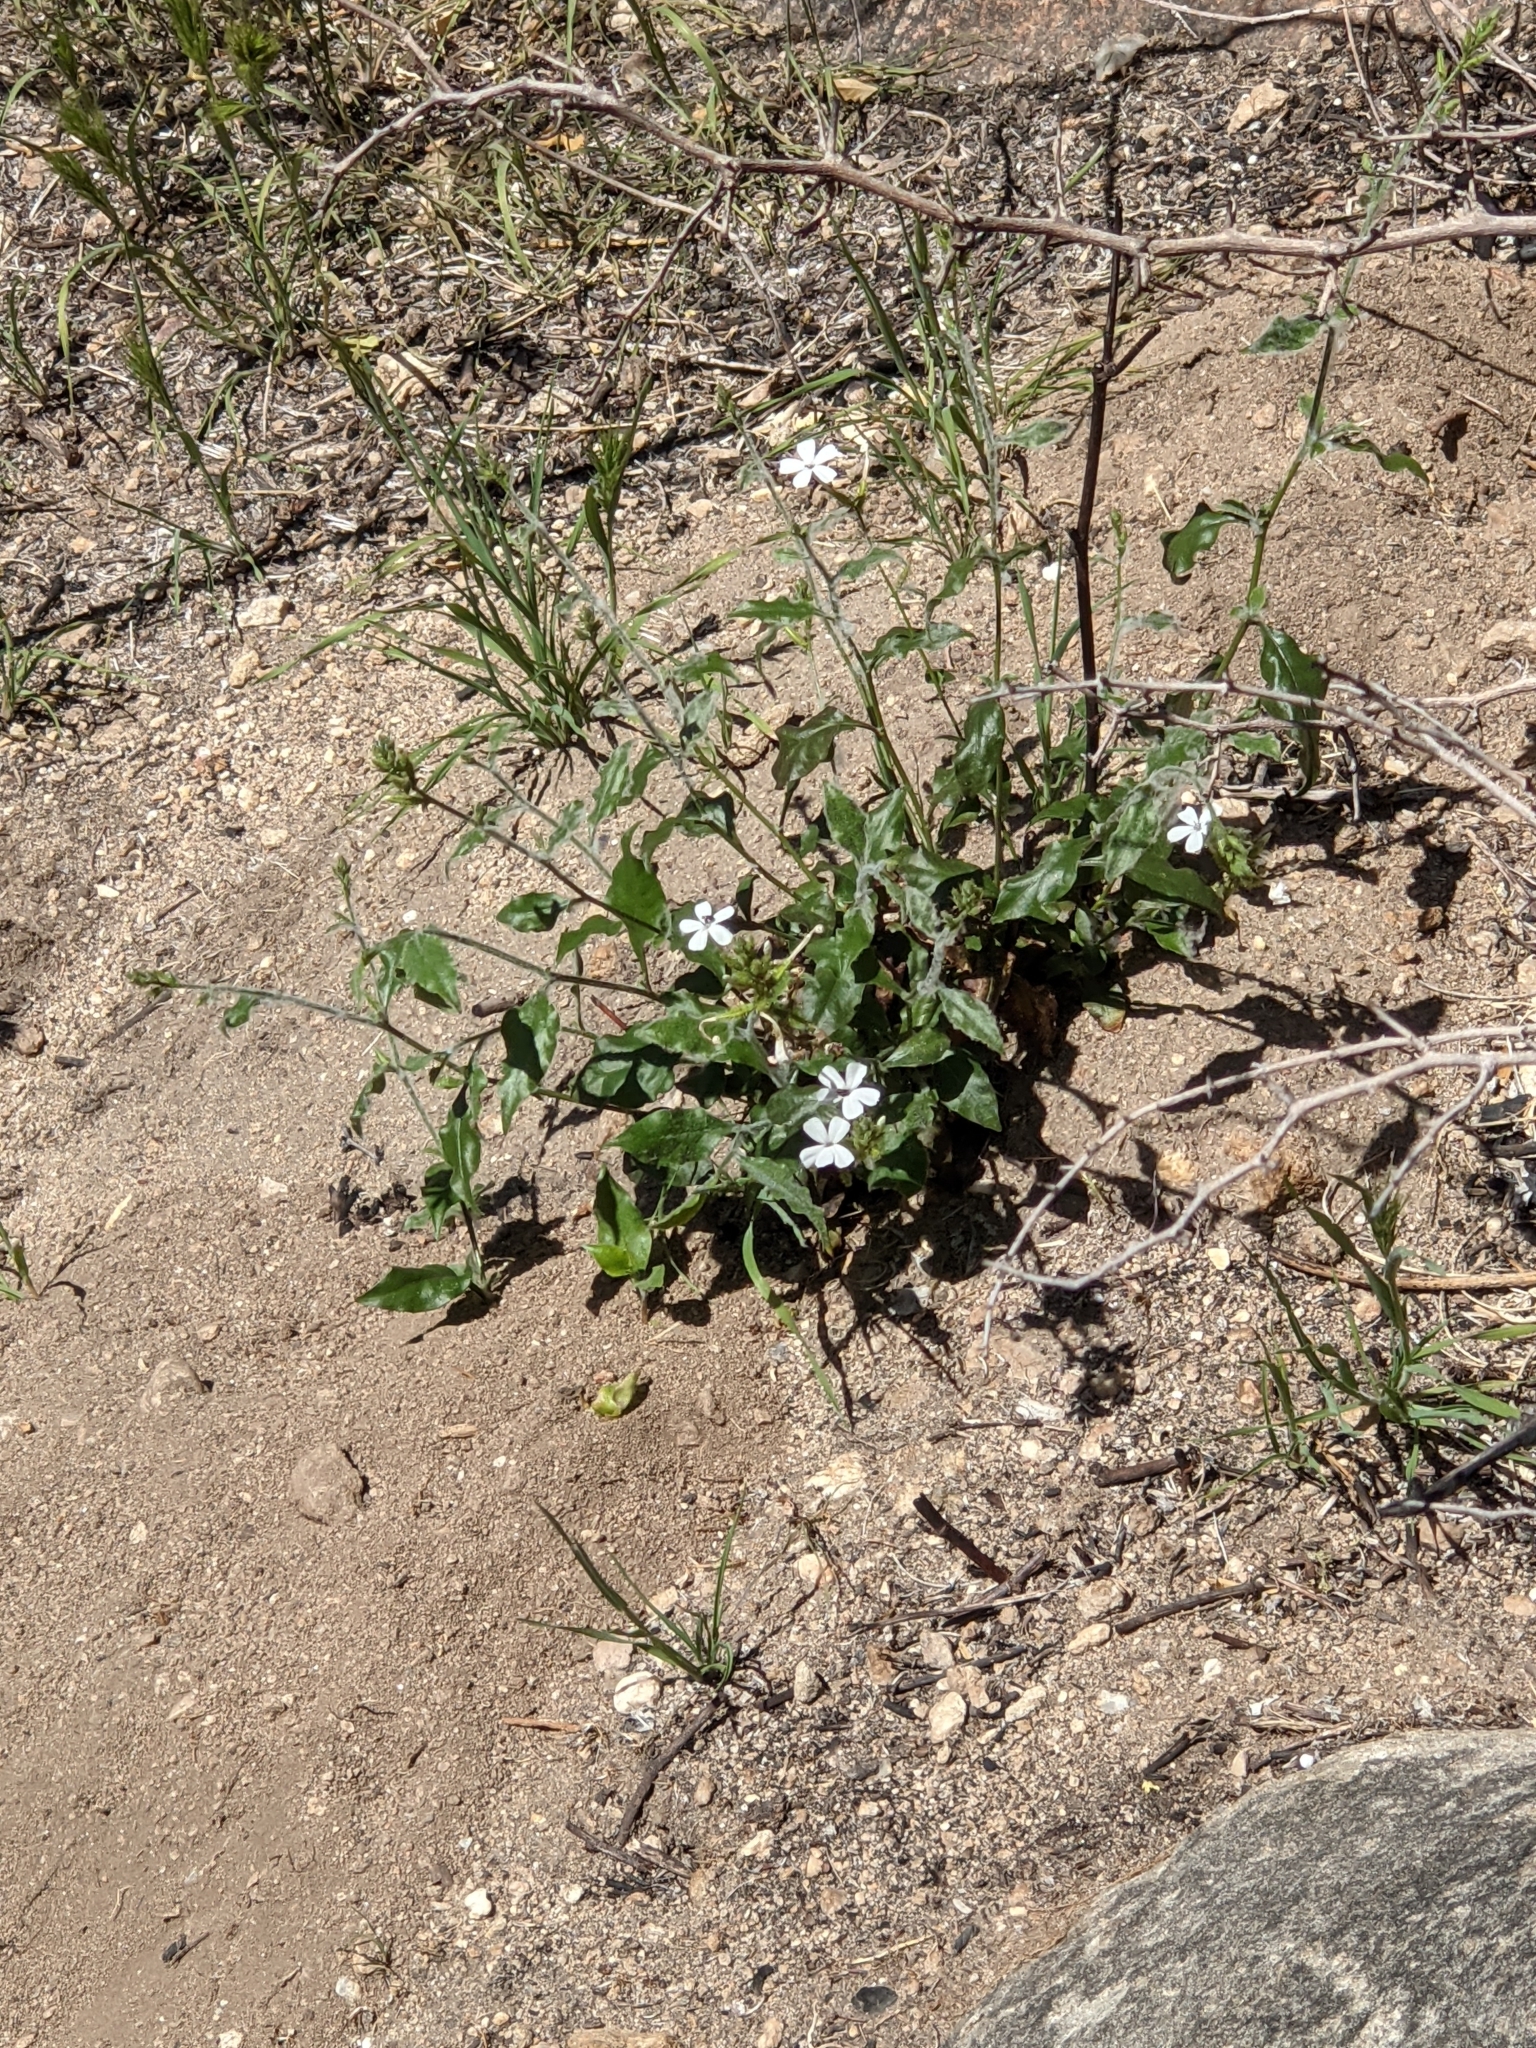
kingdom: Plantae
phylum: Tracheophyta
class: Magnoliopsida
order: Caryophyllales
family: Plumbaginaceae
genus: Plumbago
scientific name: Plumbago zeylanica
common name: Doctorbush
